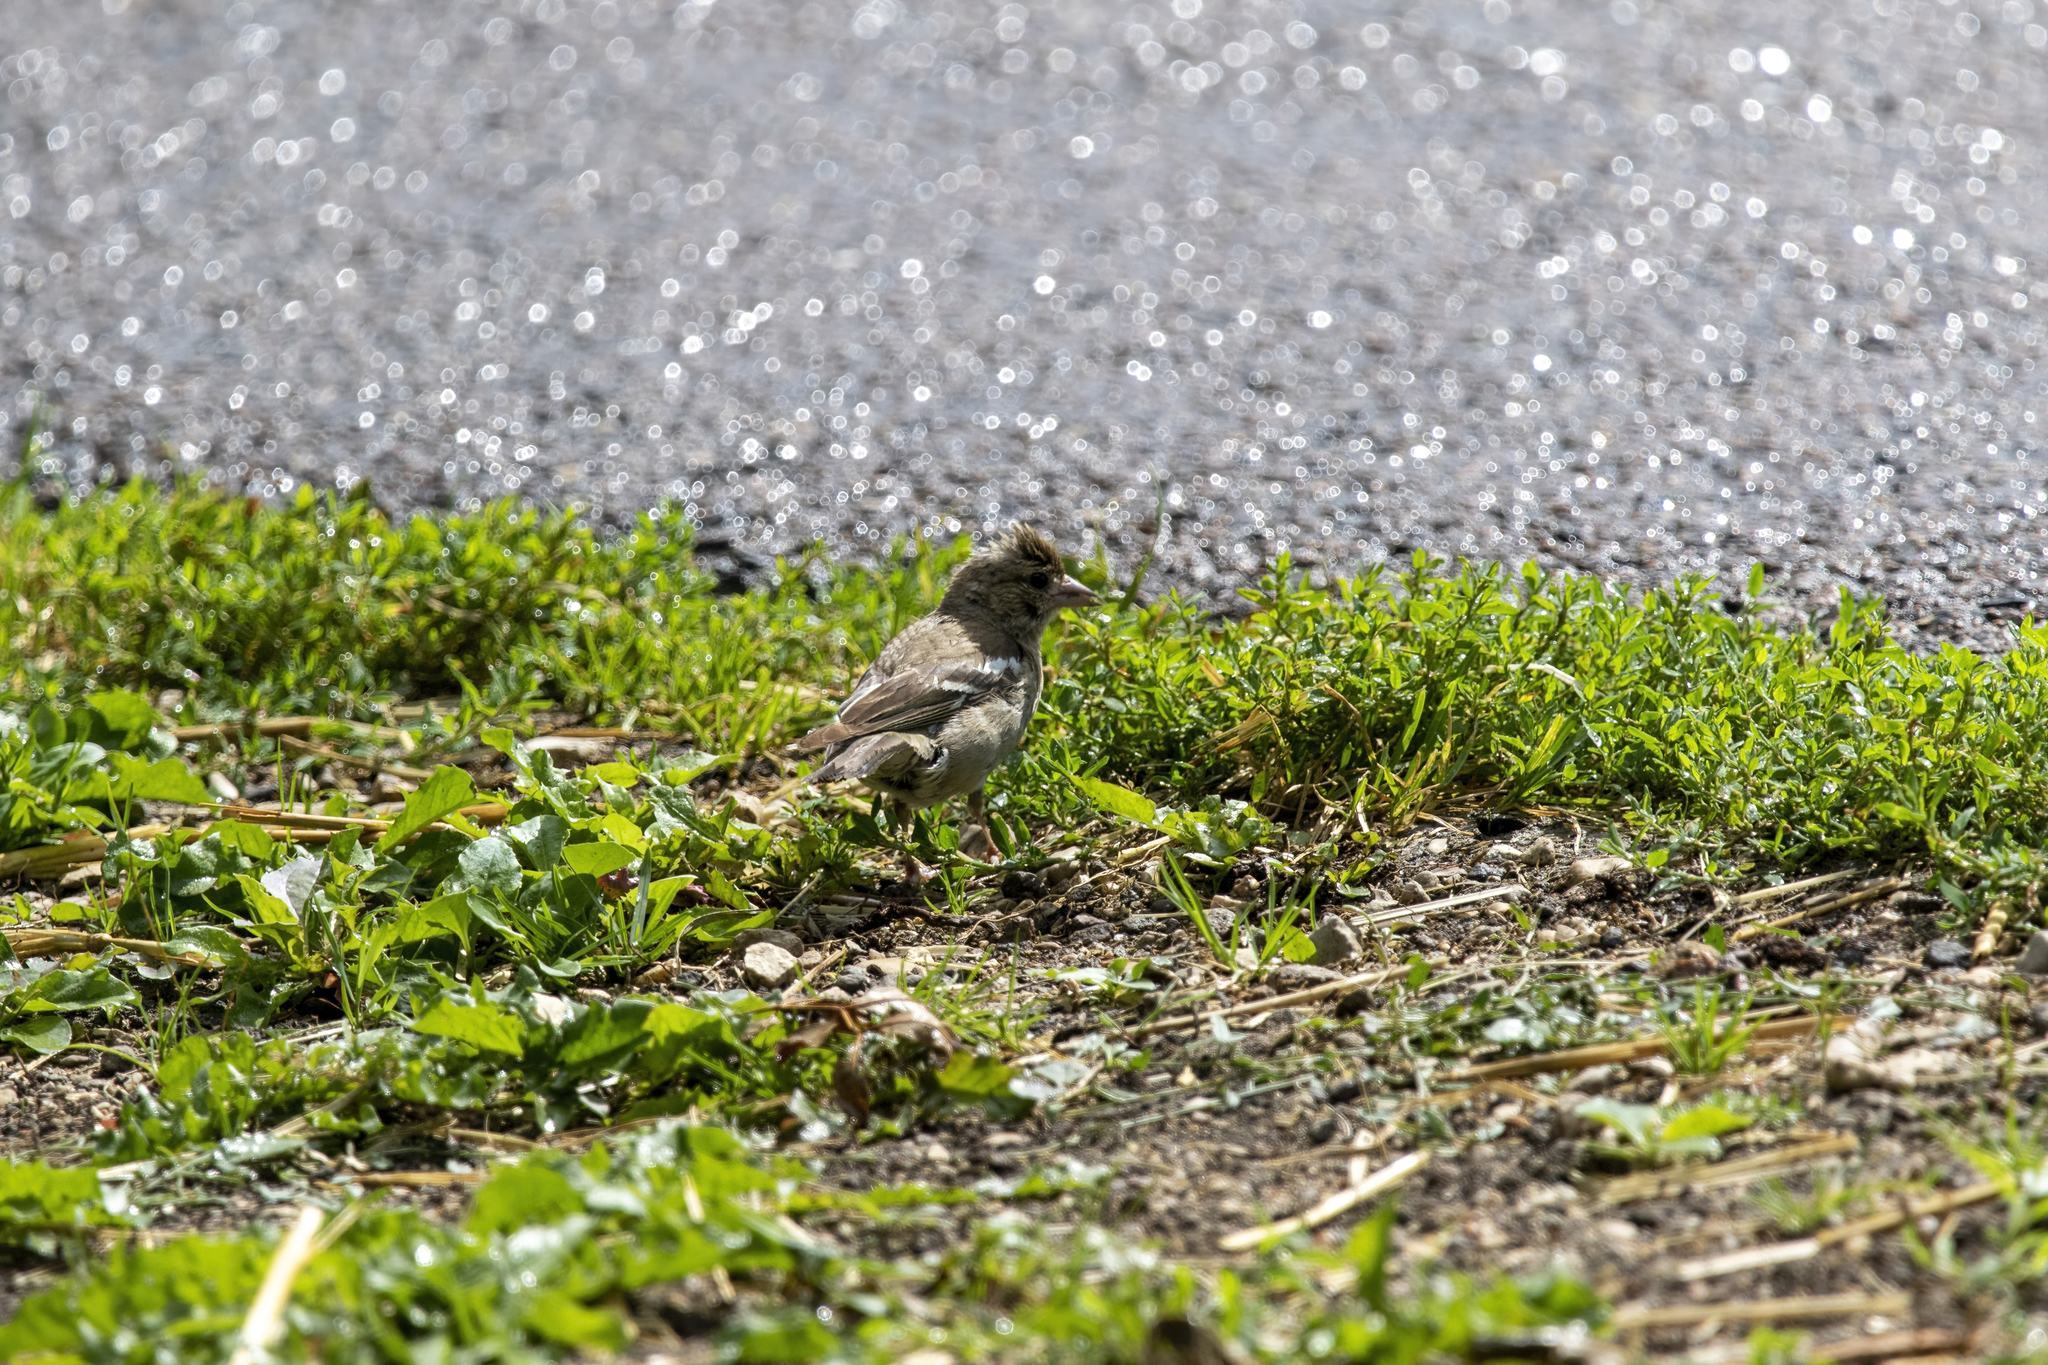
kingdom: Animalia
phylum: Chordata
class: Aves
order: Passeriformes
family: Fringillidae
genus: Fringilla
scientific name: Fringilla coelebs
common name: Common chaffinch
